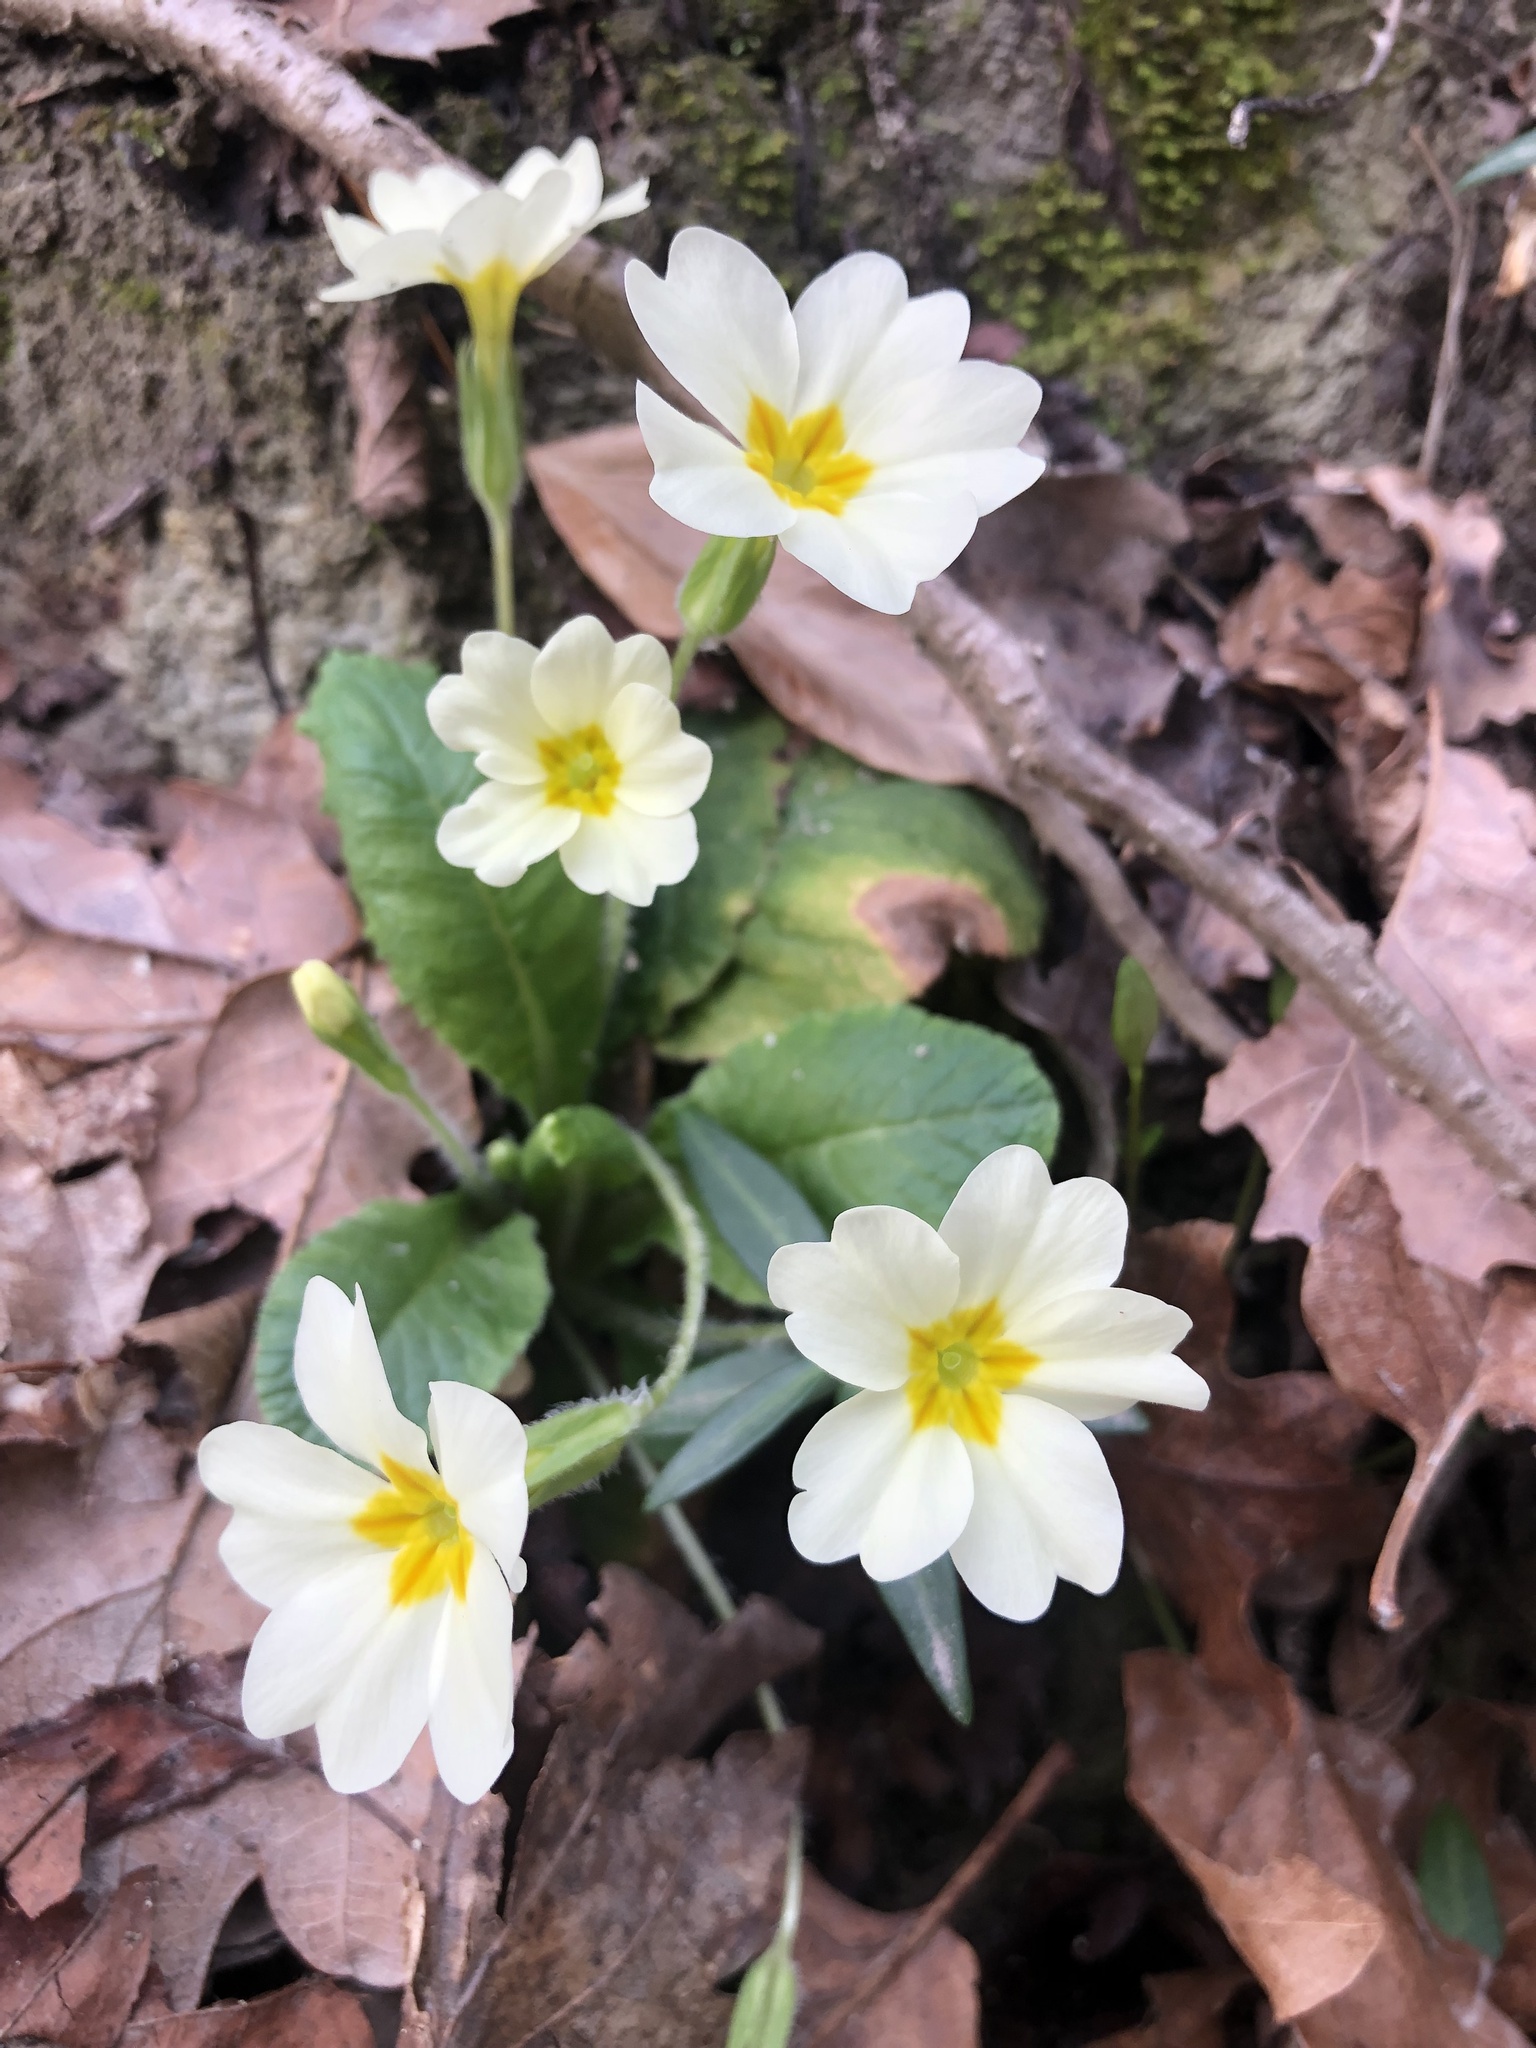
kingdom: Plantae
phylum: Tracheophyta
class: Magnoliopsida
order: Ericales
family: Primulaceae
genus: Primula
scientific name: Primula vulgaris
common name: Primrose
